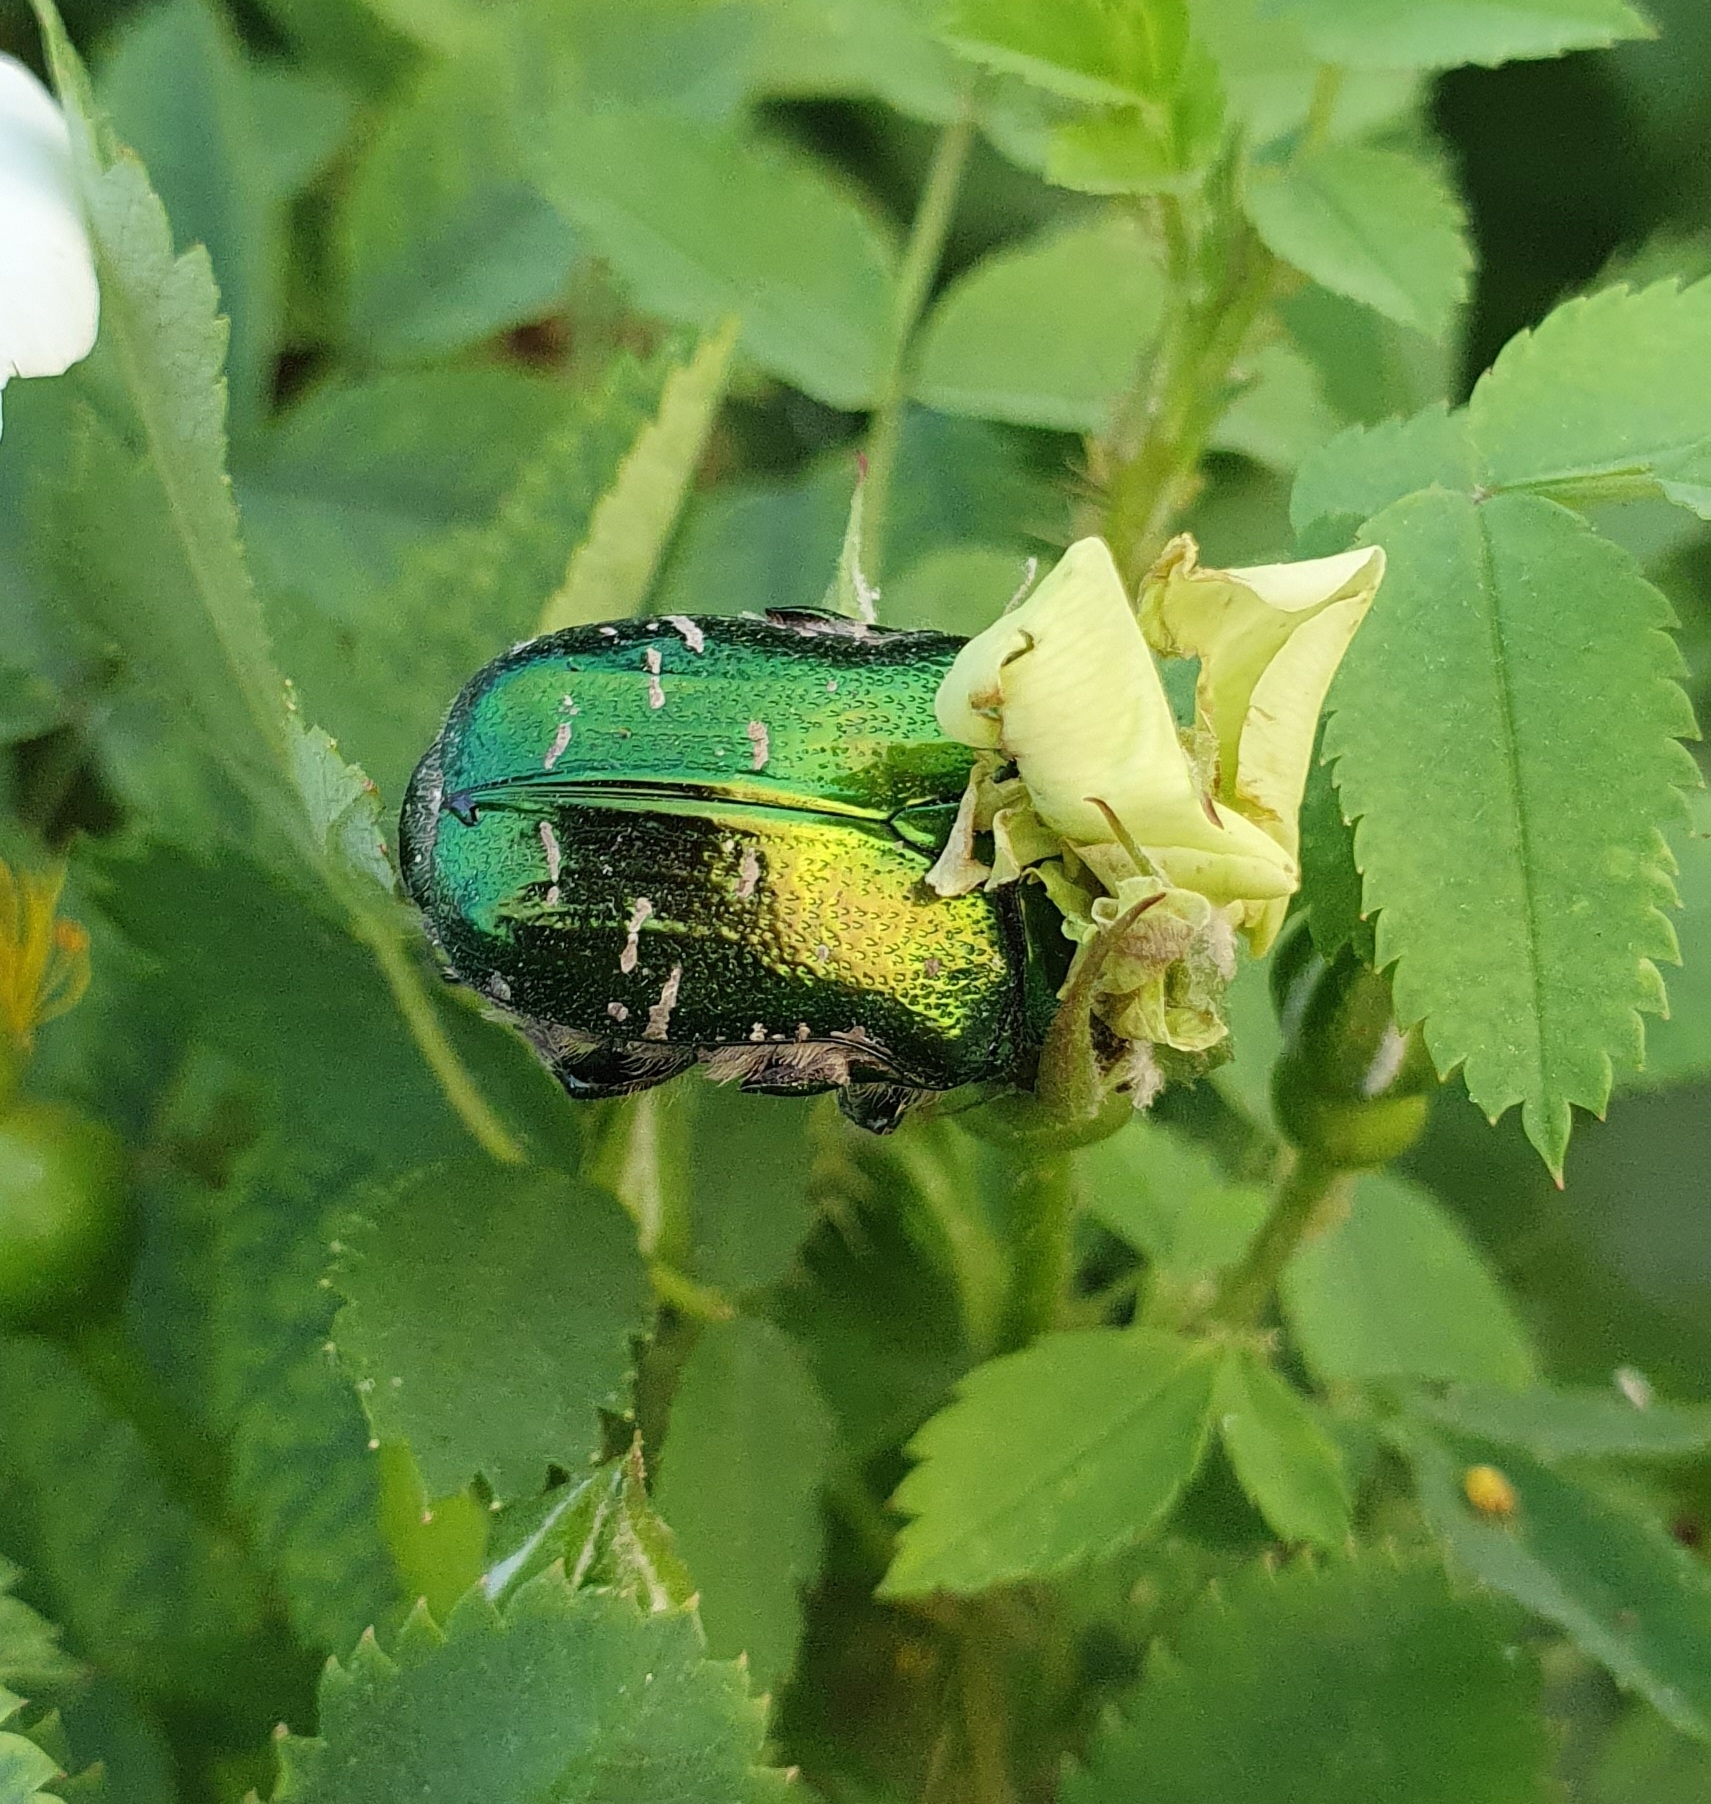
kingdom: Animalia
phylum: Arthropoda
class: Insecta
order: Coleoptera
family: Scarabaeidae
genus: Cetonia
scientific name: Cetonia aurata
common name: Rose chafer
